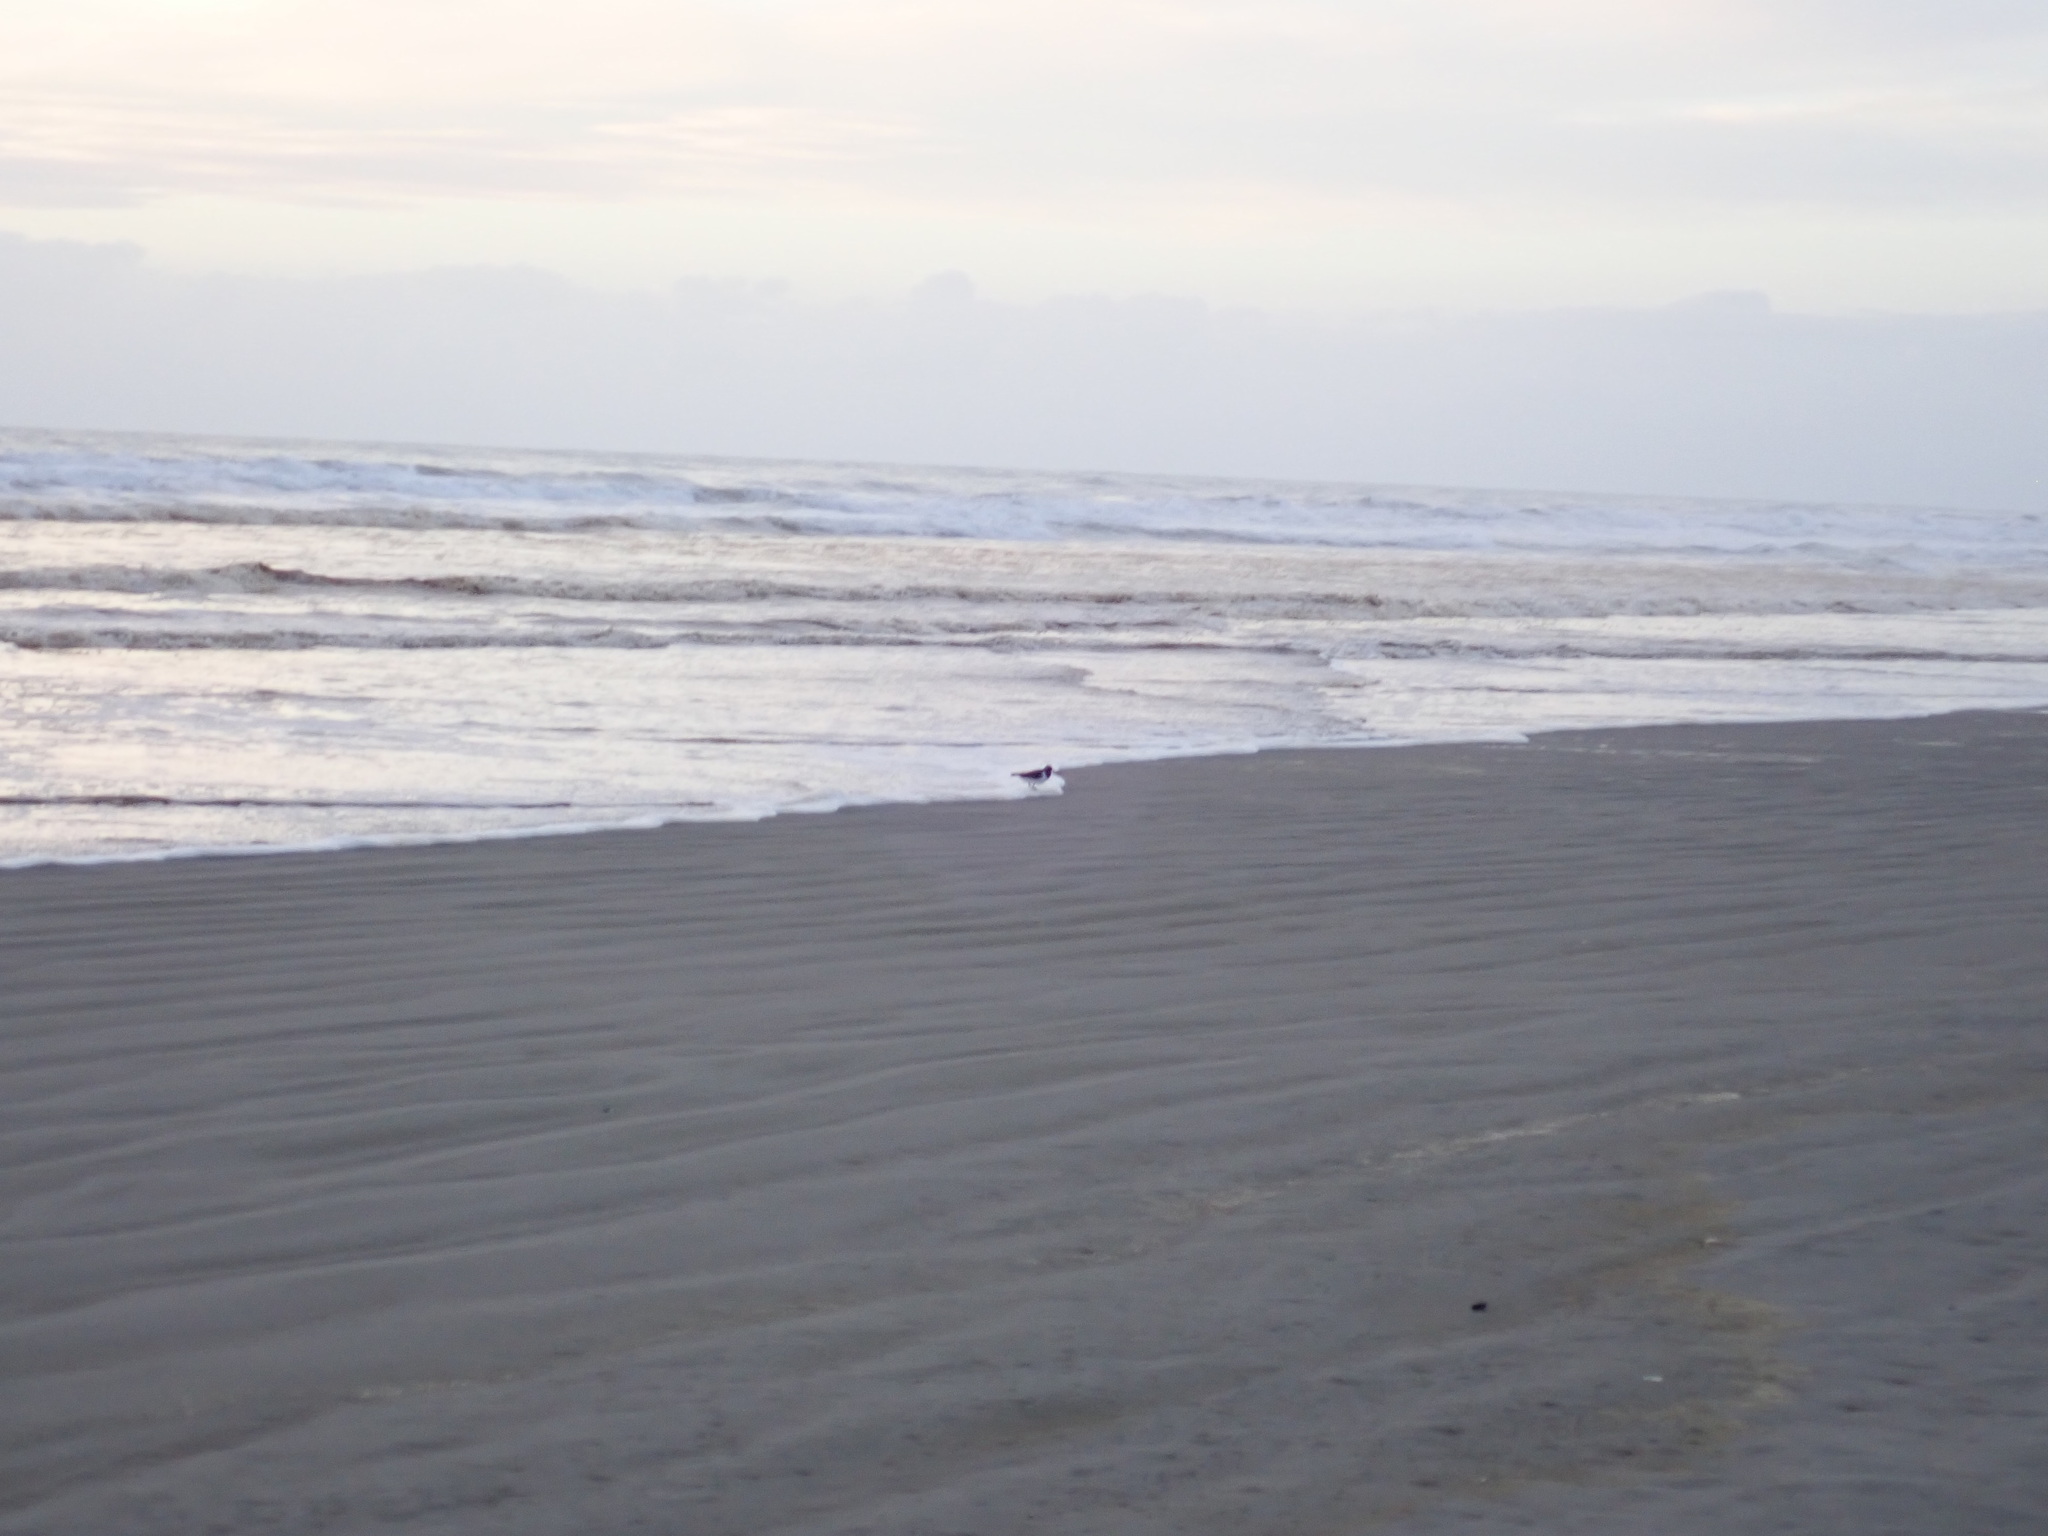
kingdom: Animalia
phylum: Chordata
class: Aves
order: Charadriiformes
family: Haematopodidae
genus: Haematopus
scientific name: Haematopus finschi
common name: South island oystercatcher
